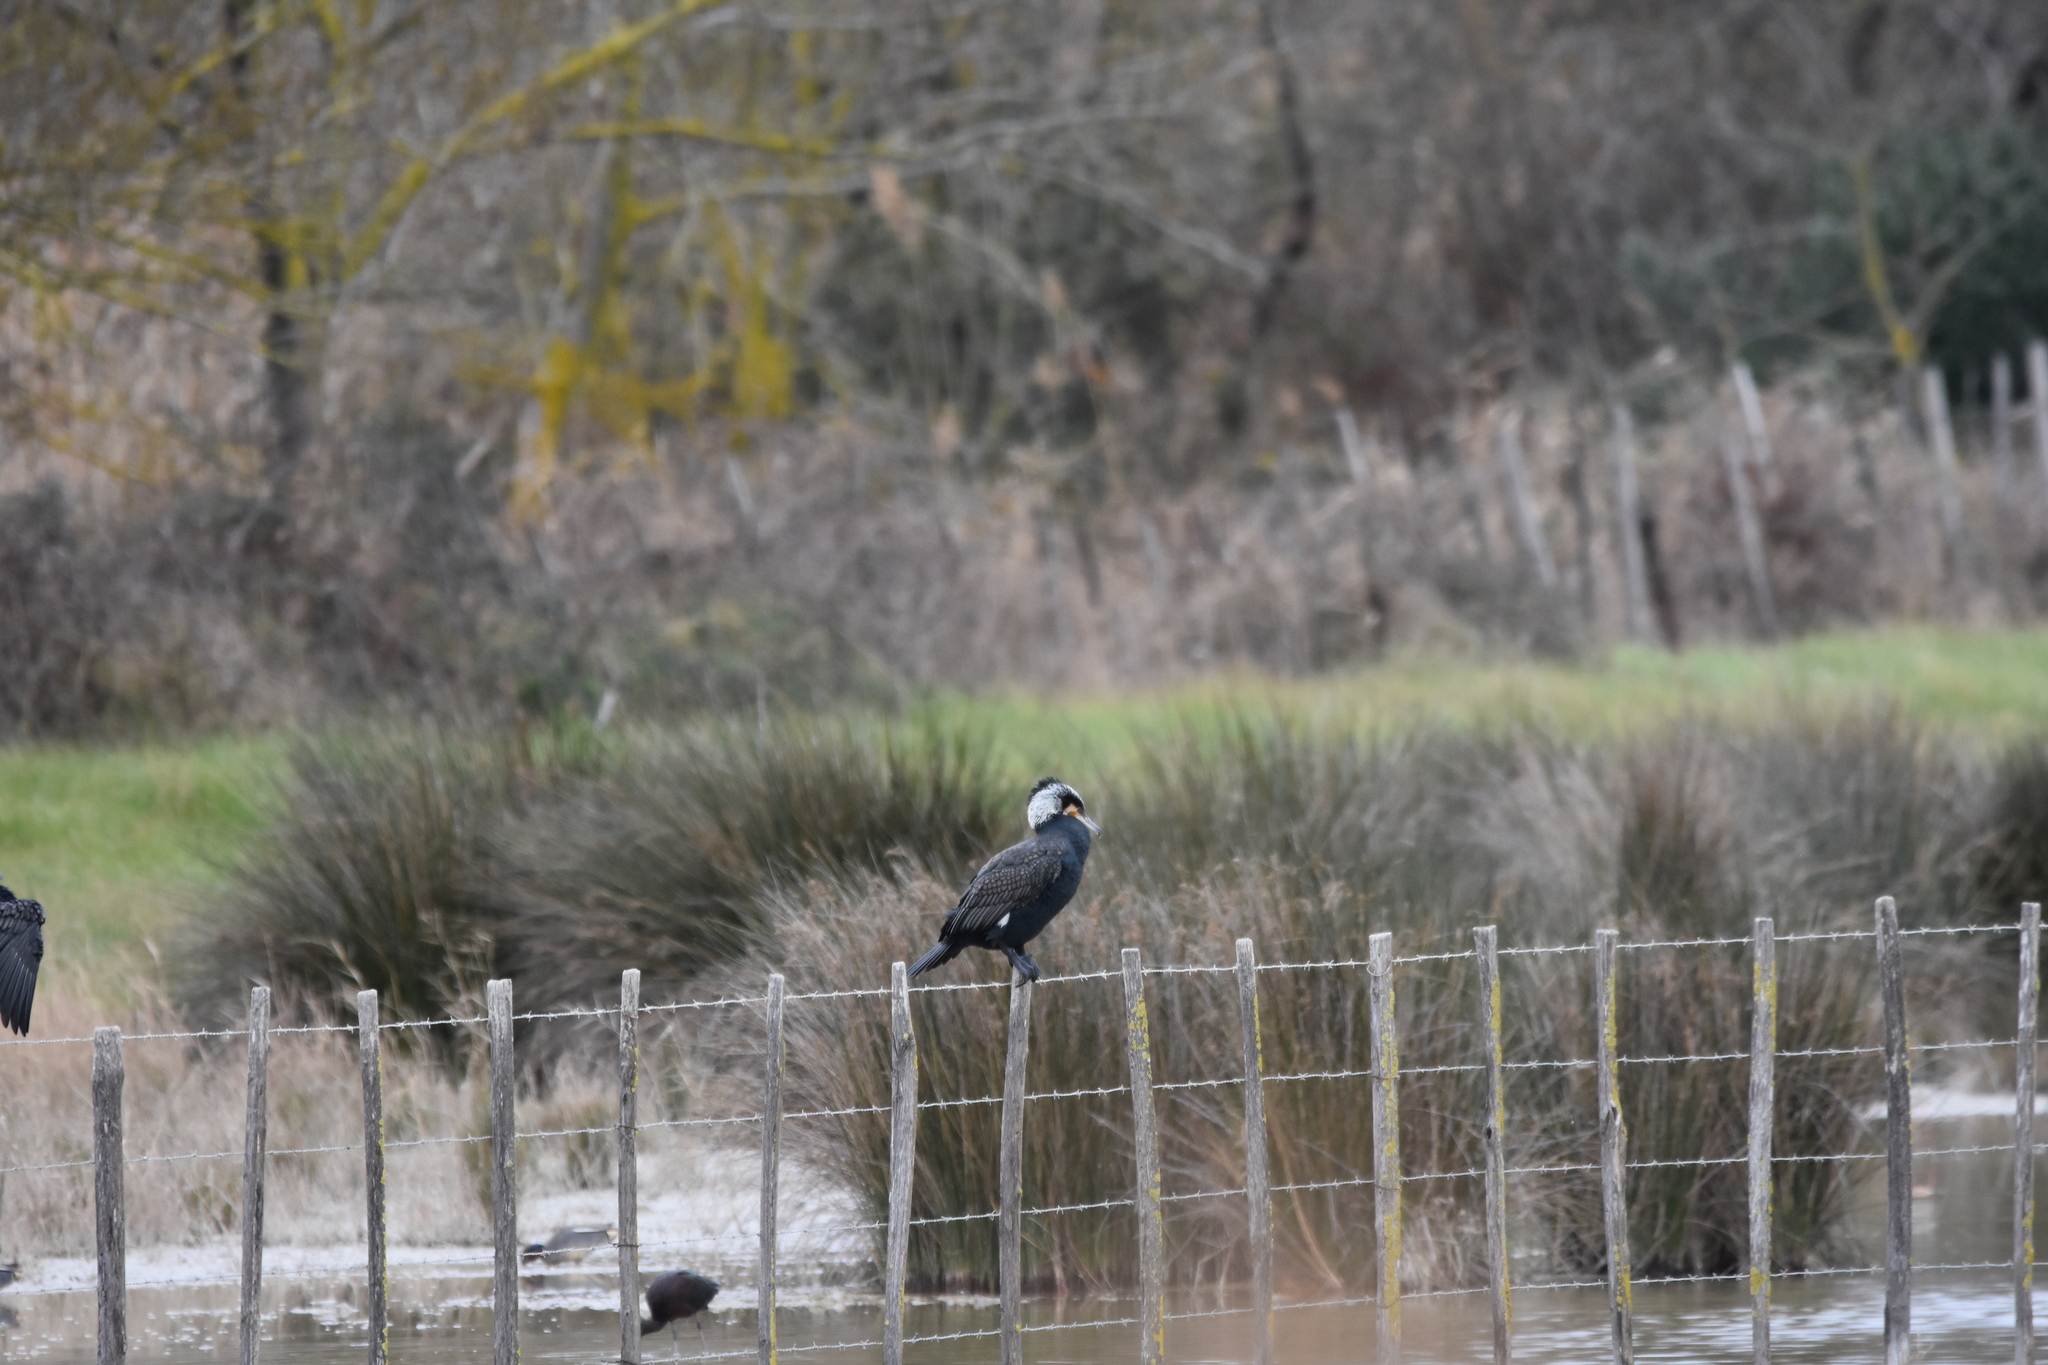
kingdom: Animalia
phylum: Chordata
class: Aves
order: Suliformes
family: Phalacrocoracidae
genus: Phalacrocorax
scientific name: Phalacrocorax carbo
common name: Great cormorant
